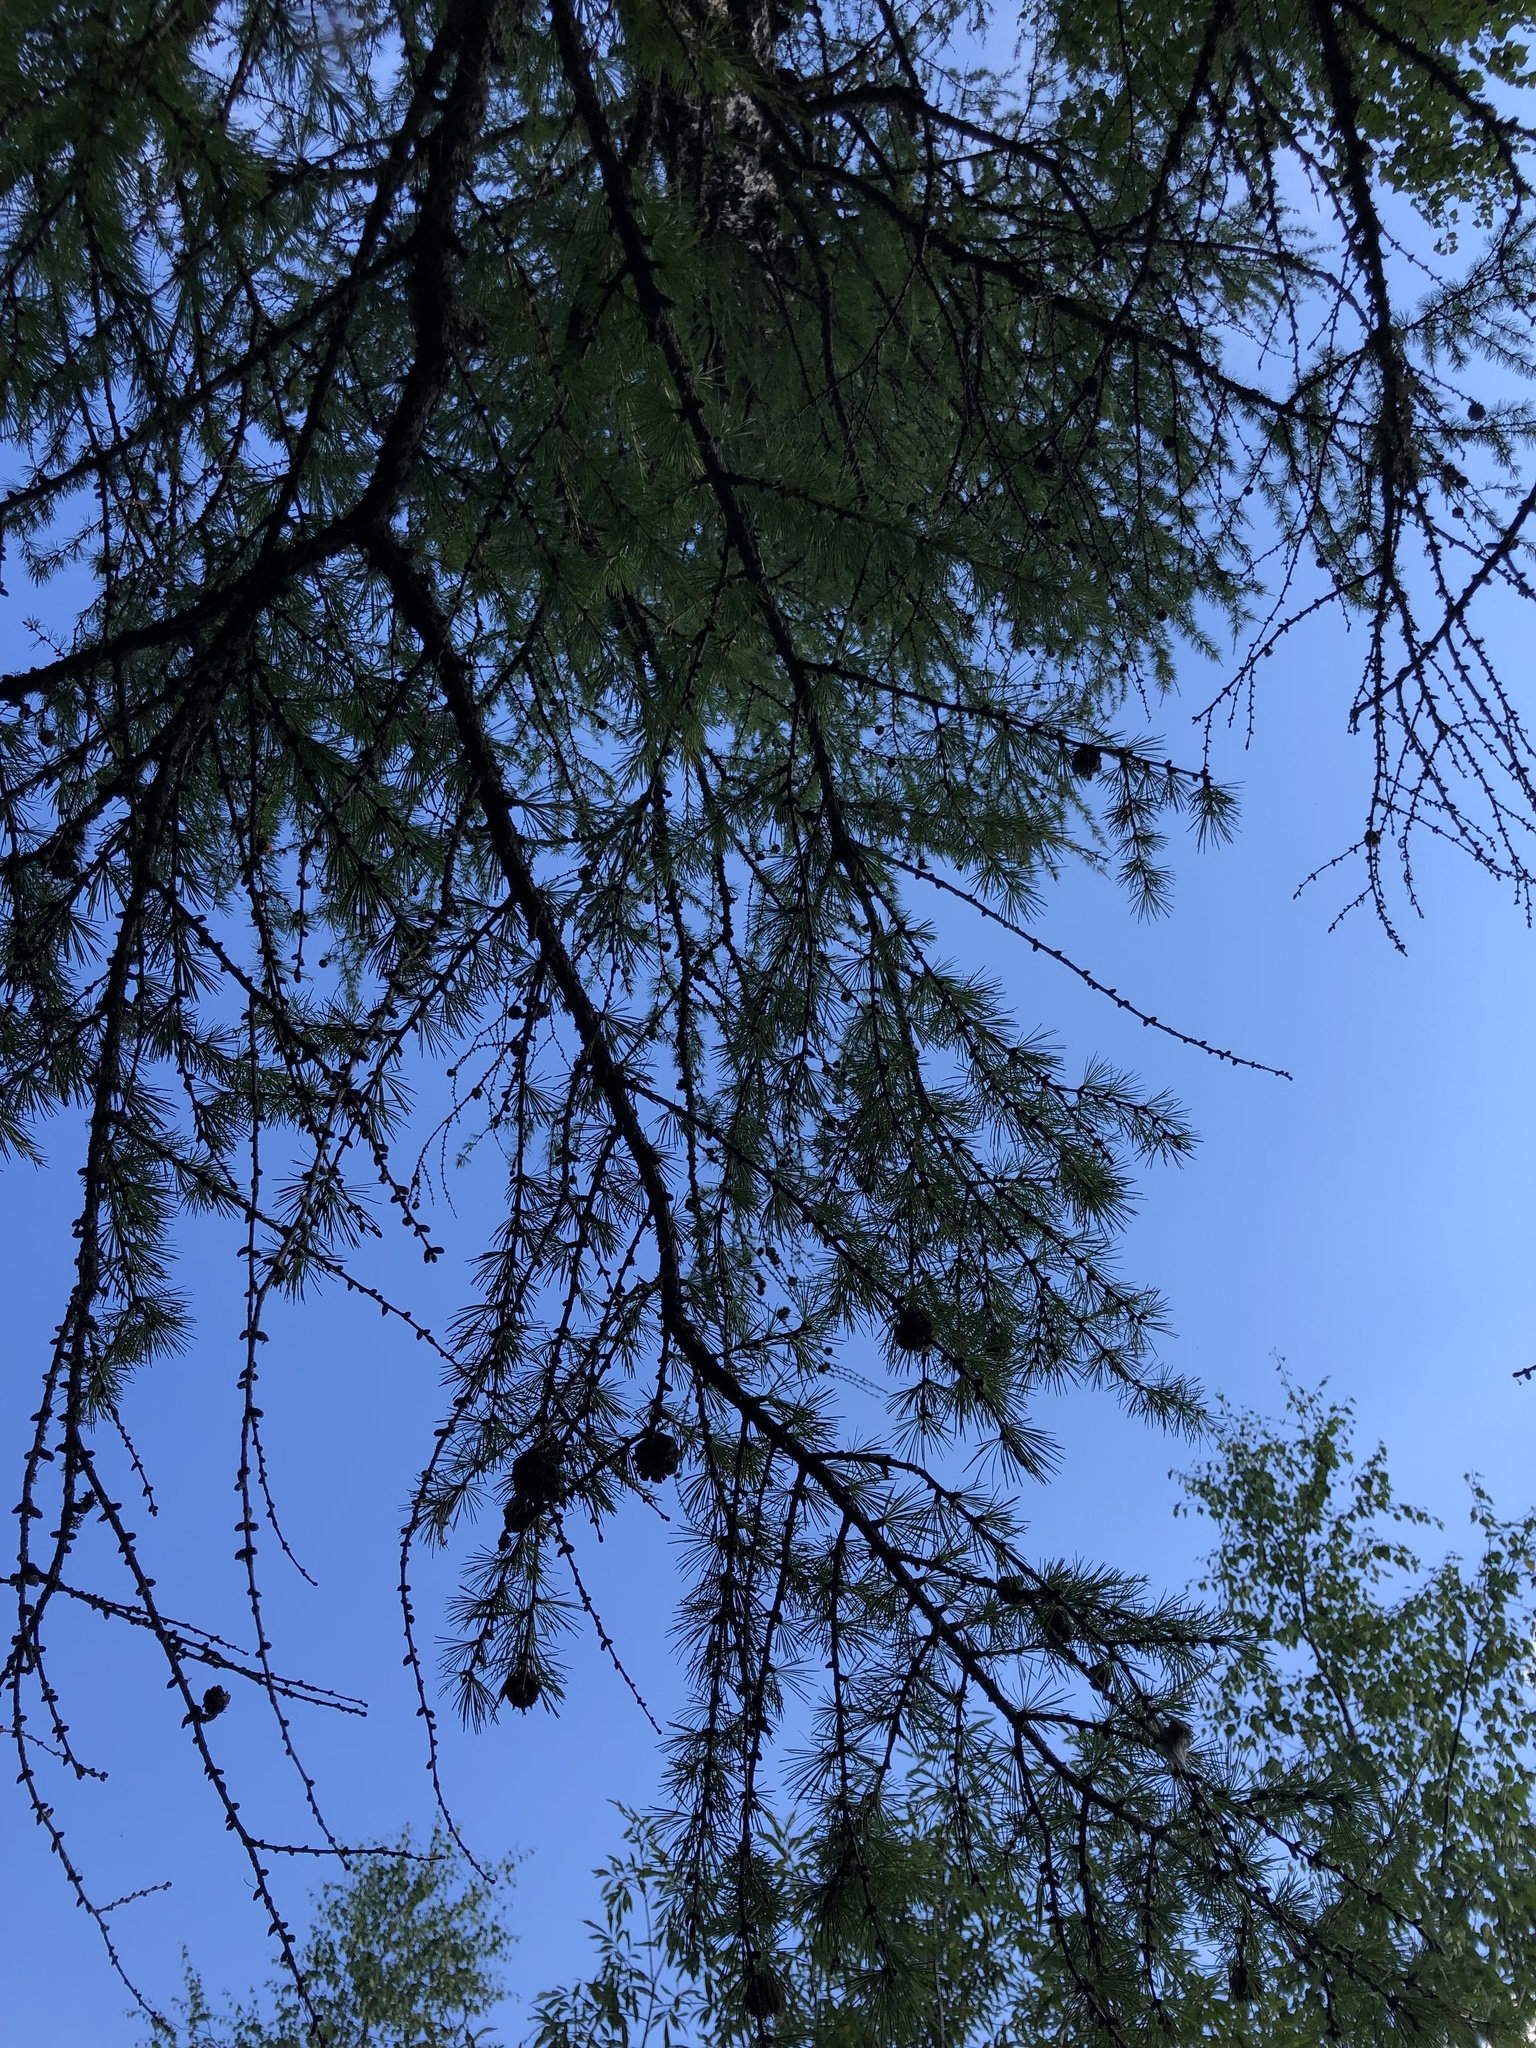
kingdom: Plantae
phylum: Tracheophyta
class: Pinopsida
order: Pinales
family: Pinaceae
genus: Larix
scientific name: Larix sibirica
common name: Siberian larch
